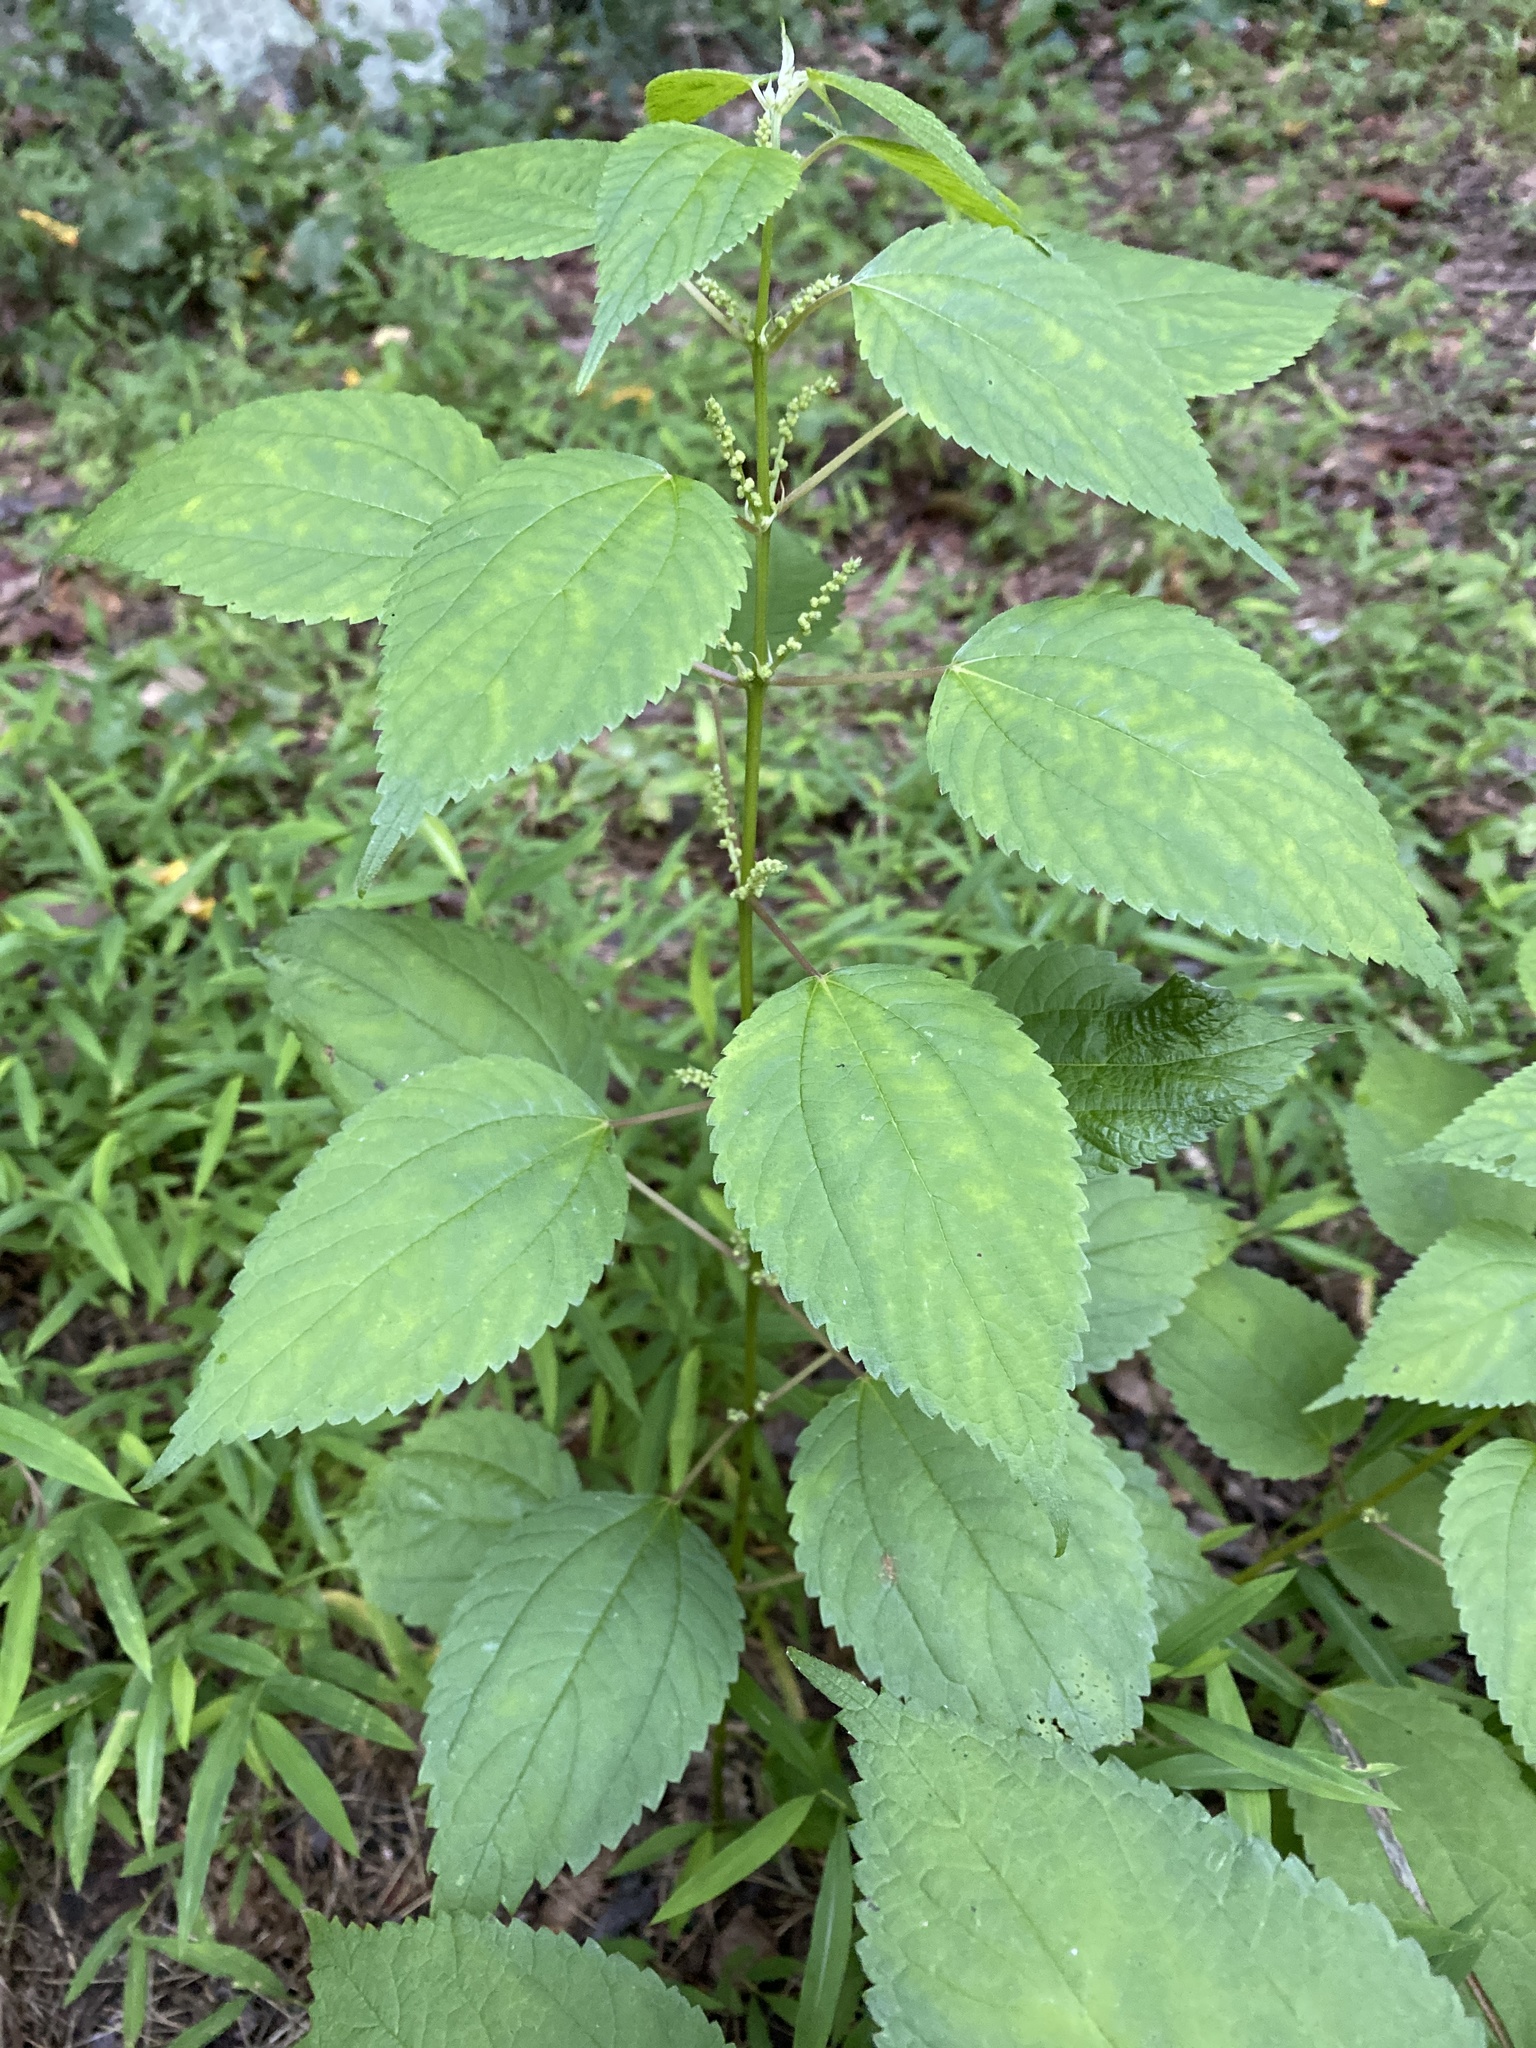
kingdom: Plantae
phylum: Tracheophyta
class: Magnoliopsida
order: Rosales
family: Urticaceae
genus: Boehmeria
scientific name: Boehmeria cylindrica
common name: Bog-hemp
